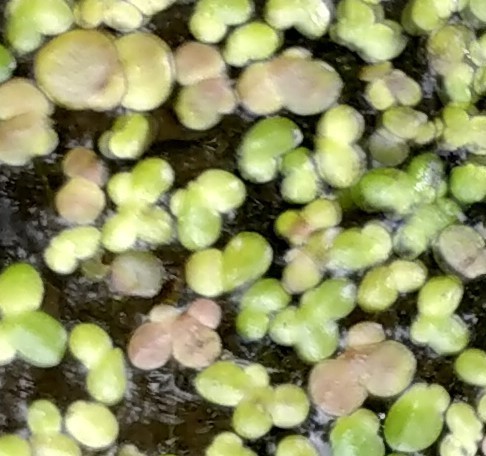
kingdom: Plantae
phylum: Tracheophyta
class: Liliopsida
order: Alismatales
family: Araceae
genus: Spirodela
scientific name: Spirodela polyrhiza
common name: Great duckweed
